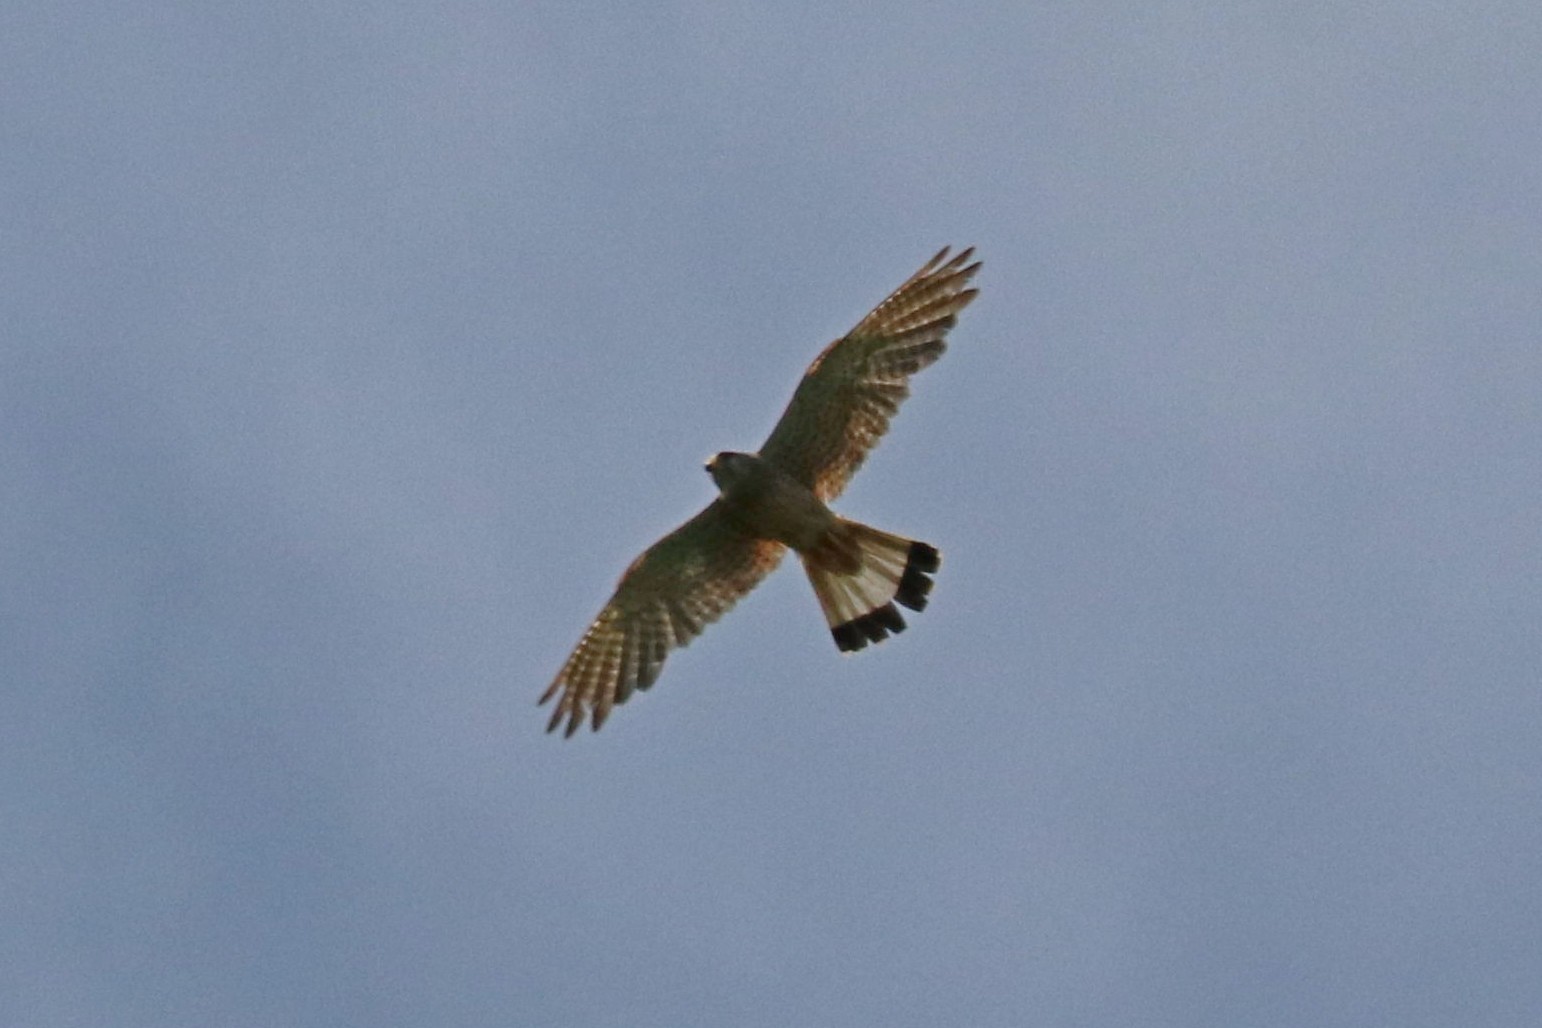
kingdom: Animalia
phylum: Chordata
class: Aves
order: Falconiformes
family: Falconidae
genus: Falco
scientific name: Falco tinnunculus
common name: Common kestrel
